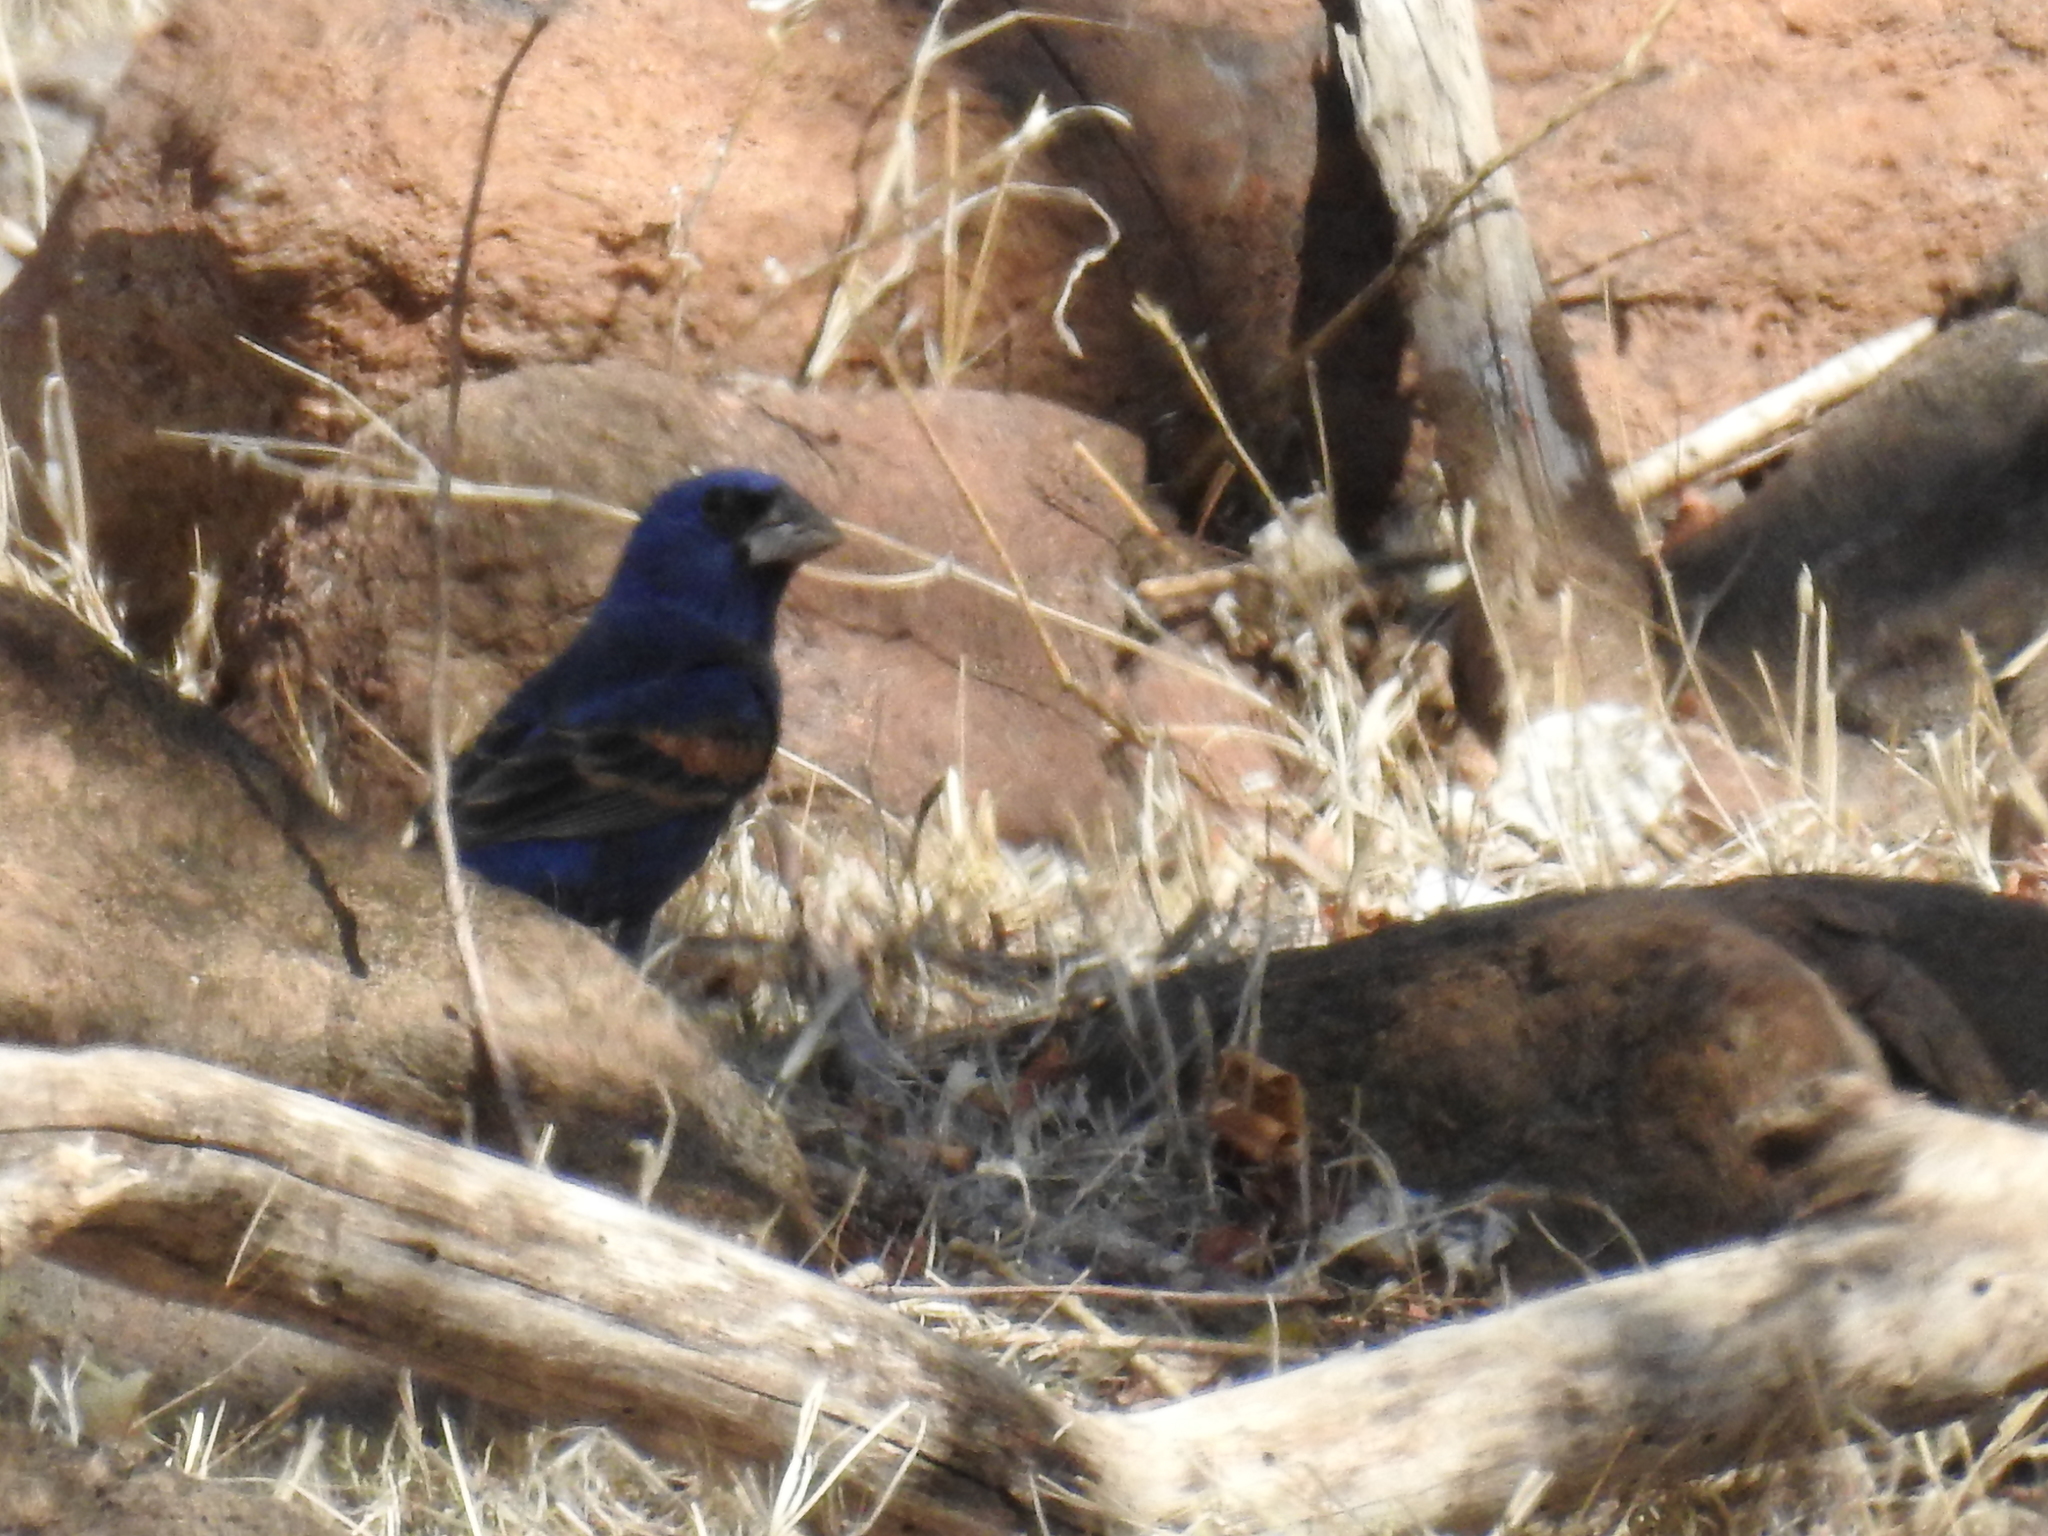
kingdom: Animalia
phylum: Chordata
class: Aves
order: Passeriformes
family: Cardinalidae
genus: Passerina
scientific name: Passerina caerulea
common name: Blue grosbeak
